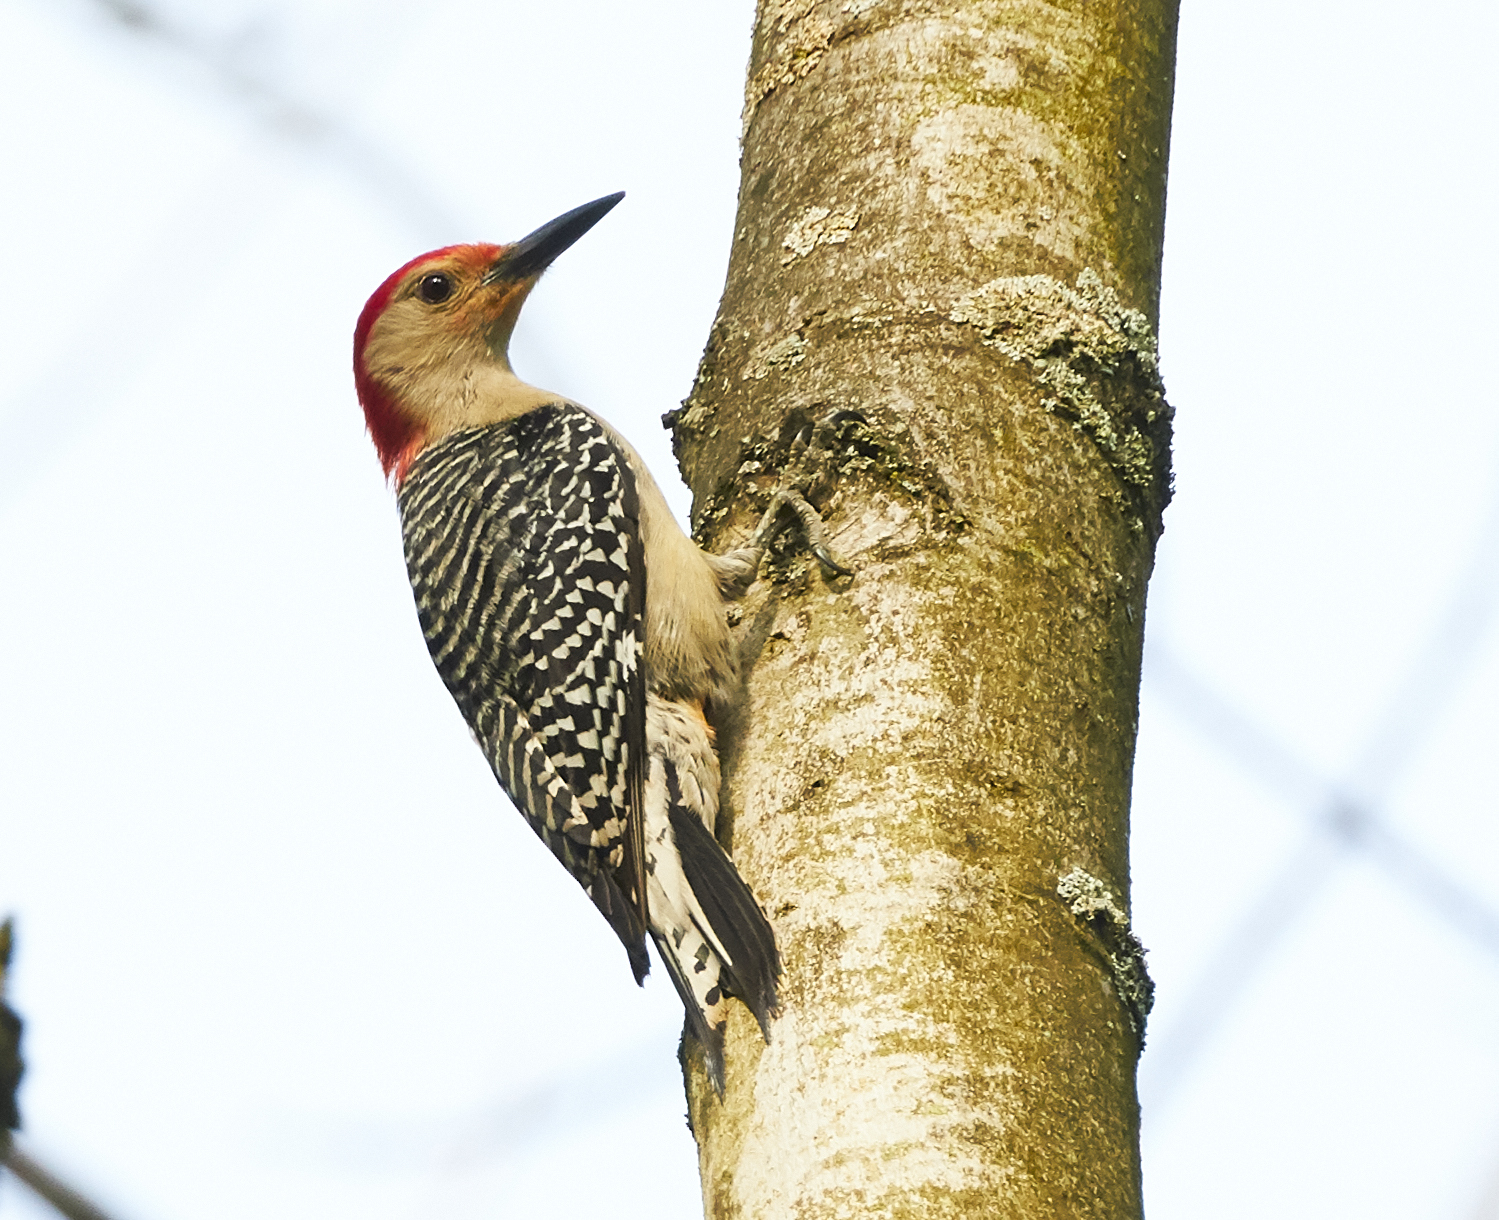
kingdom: Animalia
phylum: Chordata
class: Aves
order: Piciformes
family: Picidae
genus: Melanerpes
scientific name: Melanerpes carolinus
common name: Red-bellied woodpecker
